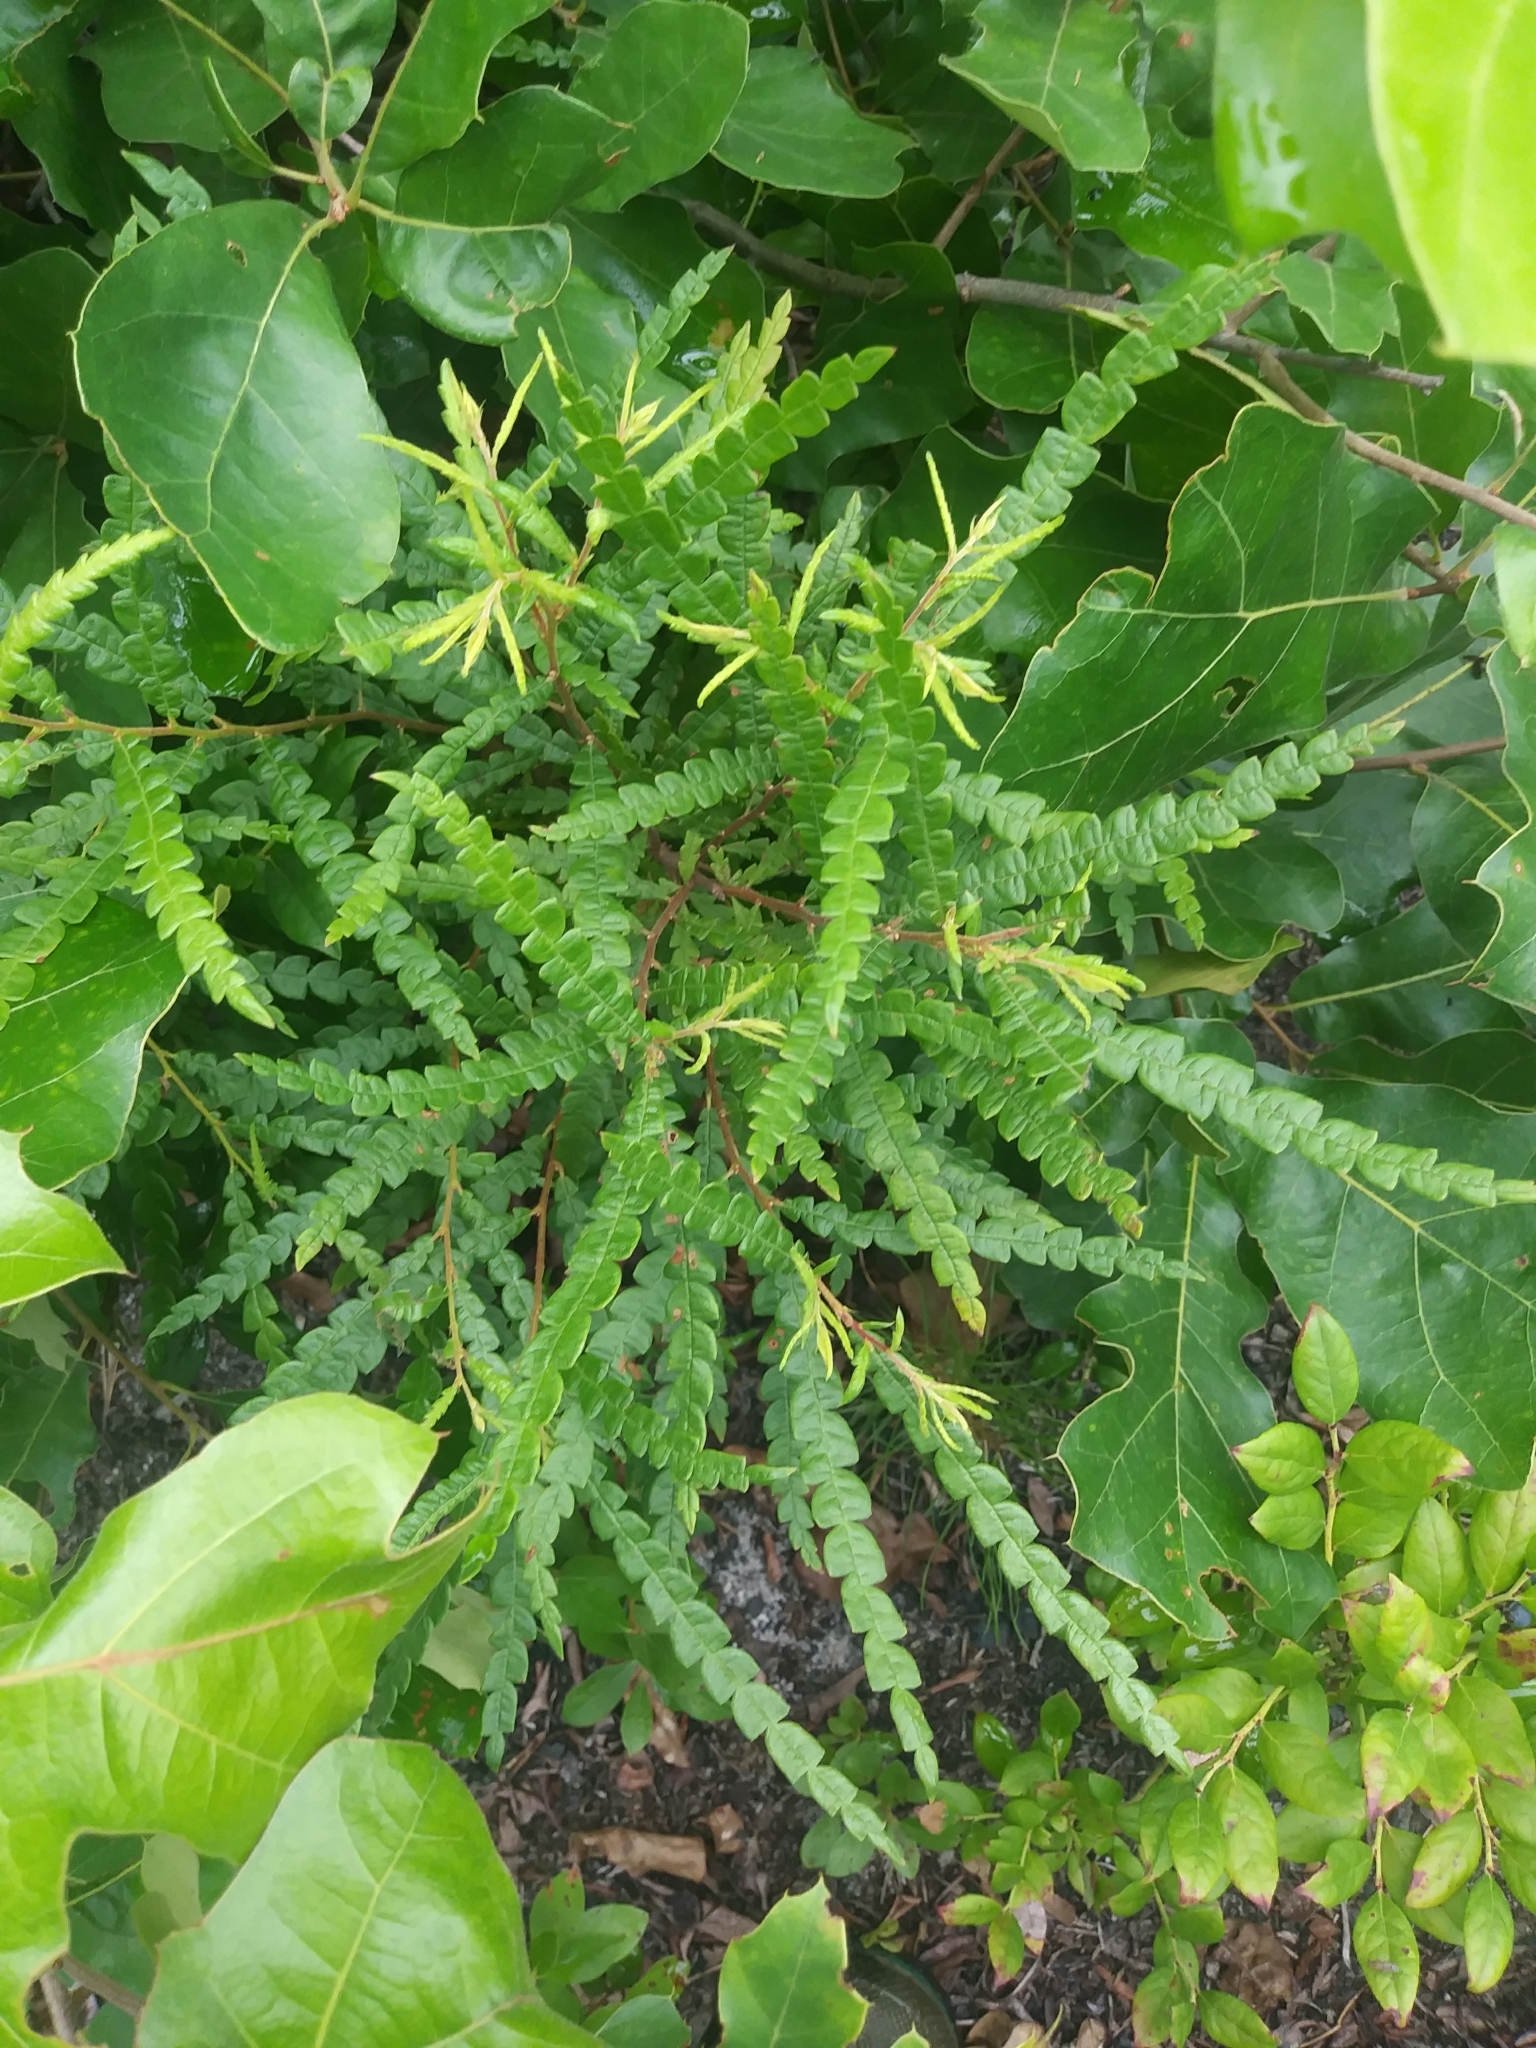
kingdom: Plantae
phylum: Tracheophyta
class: Magnoliopsida
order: Fagales
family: Myricaceae
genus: Comptonia
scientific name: Comptonia peregrina
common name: Sweet-fern
